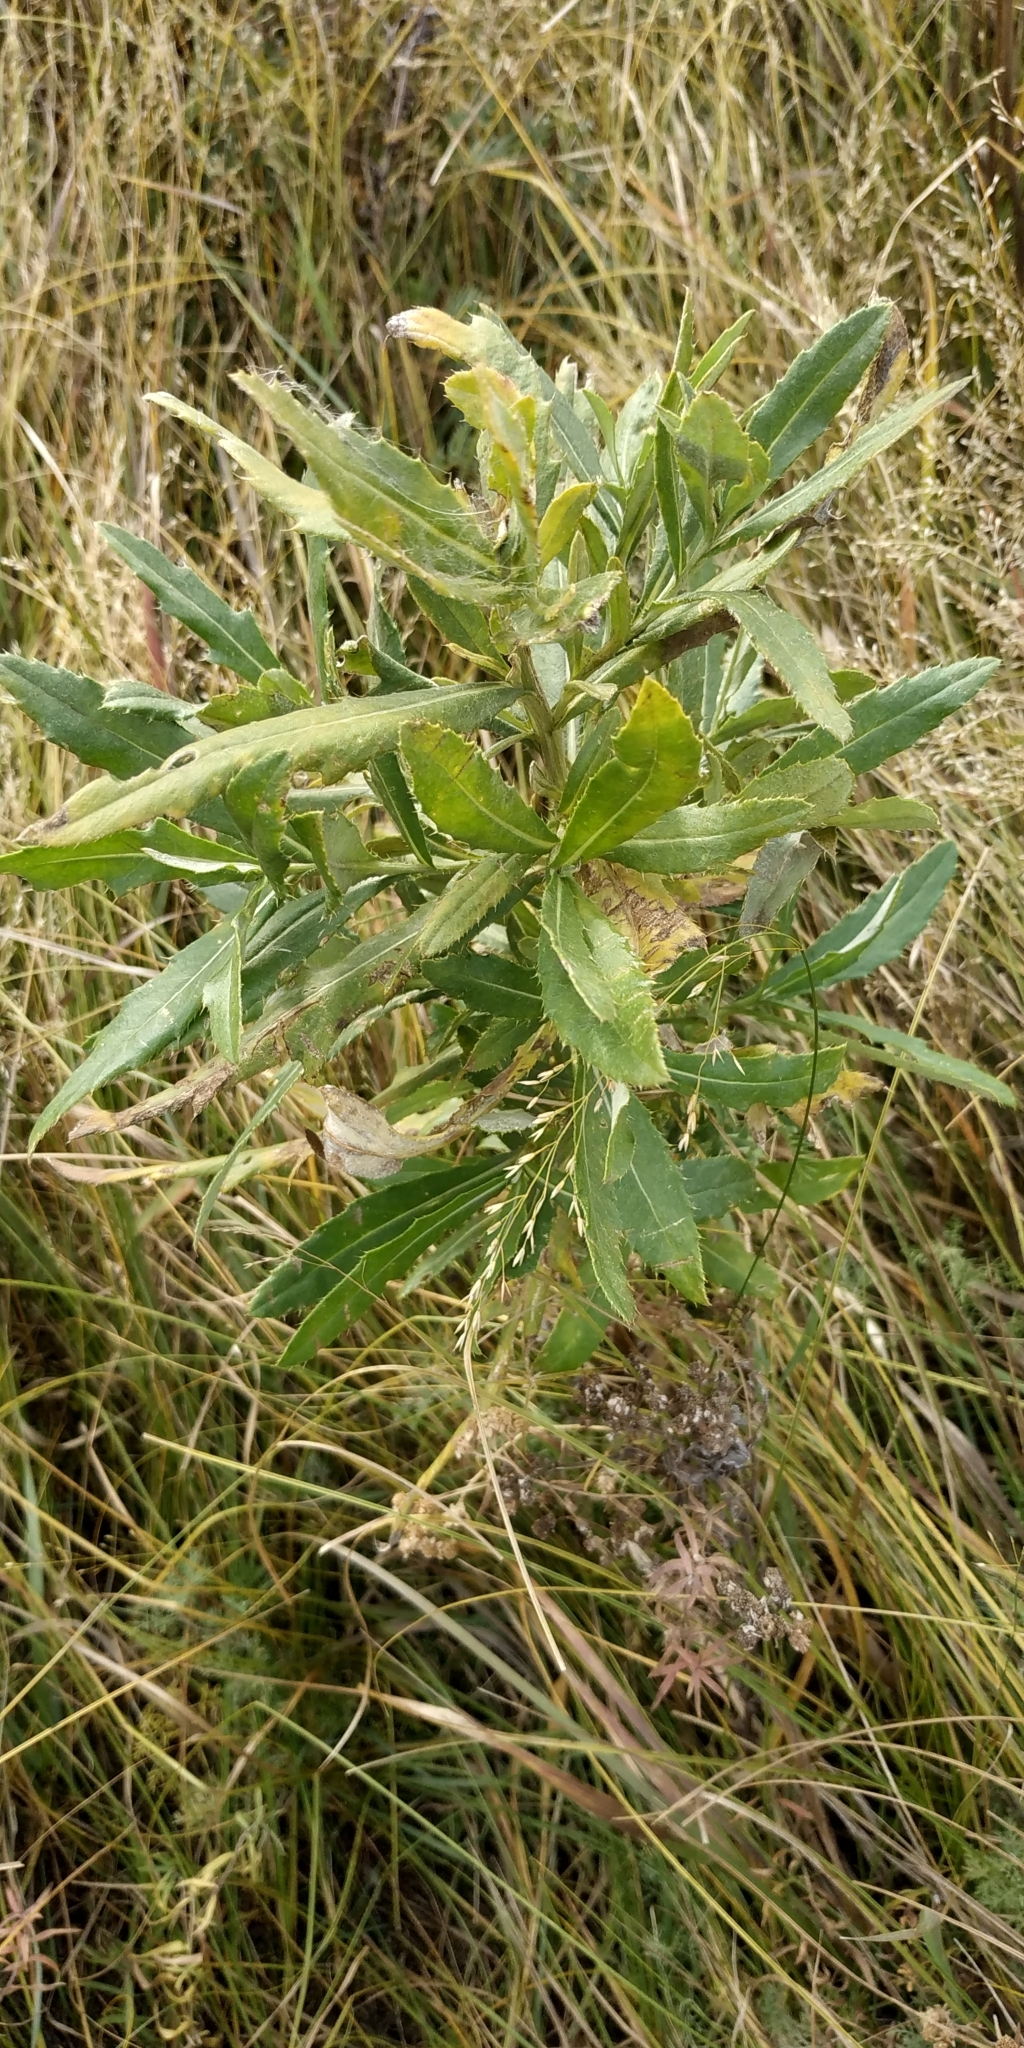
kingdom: Plantae
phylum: Tracheophyta
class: Magnoliopsida
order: Asterales
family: Asteraceae
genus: Cirsium
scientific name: Cirsium arvense
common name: Creeping thistle
